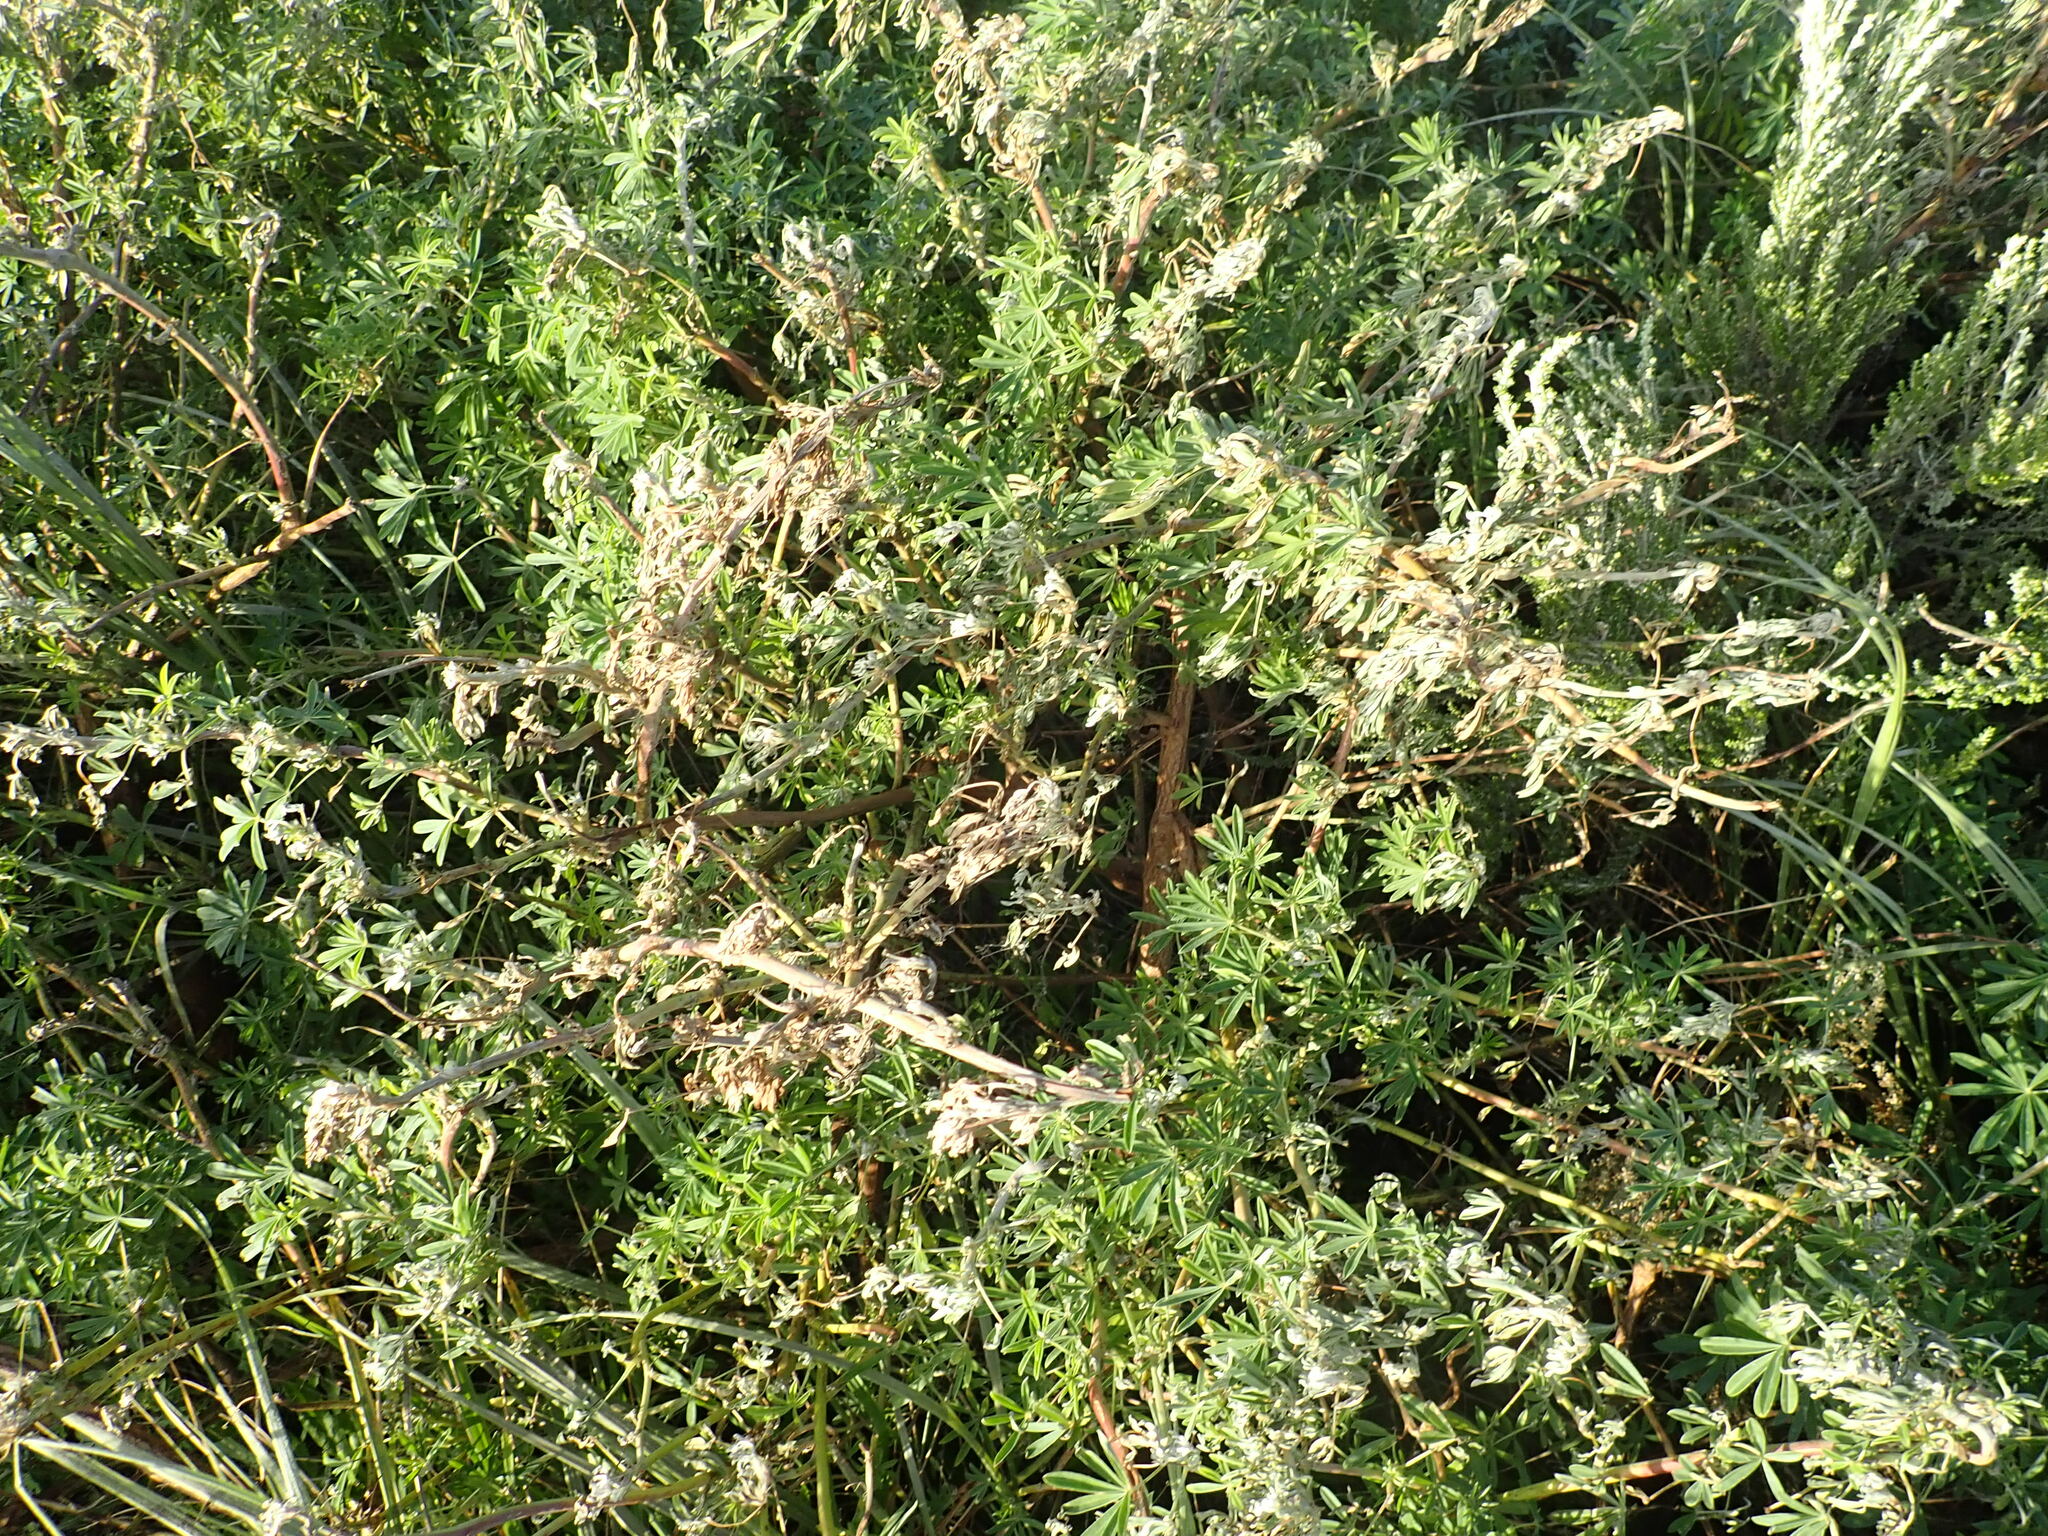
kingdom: Plantae
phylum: Tracheophyta
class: Magnoliopsida
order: Asterales
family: Asteraceae
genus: Ozothamnus
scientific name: Ozothamnus leptophyllus
